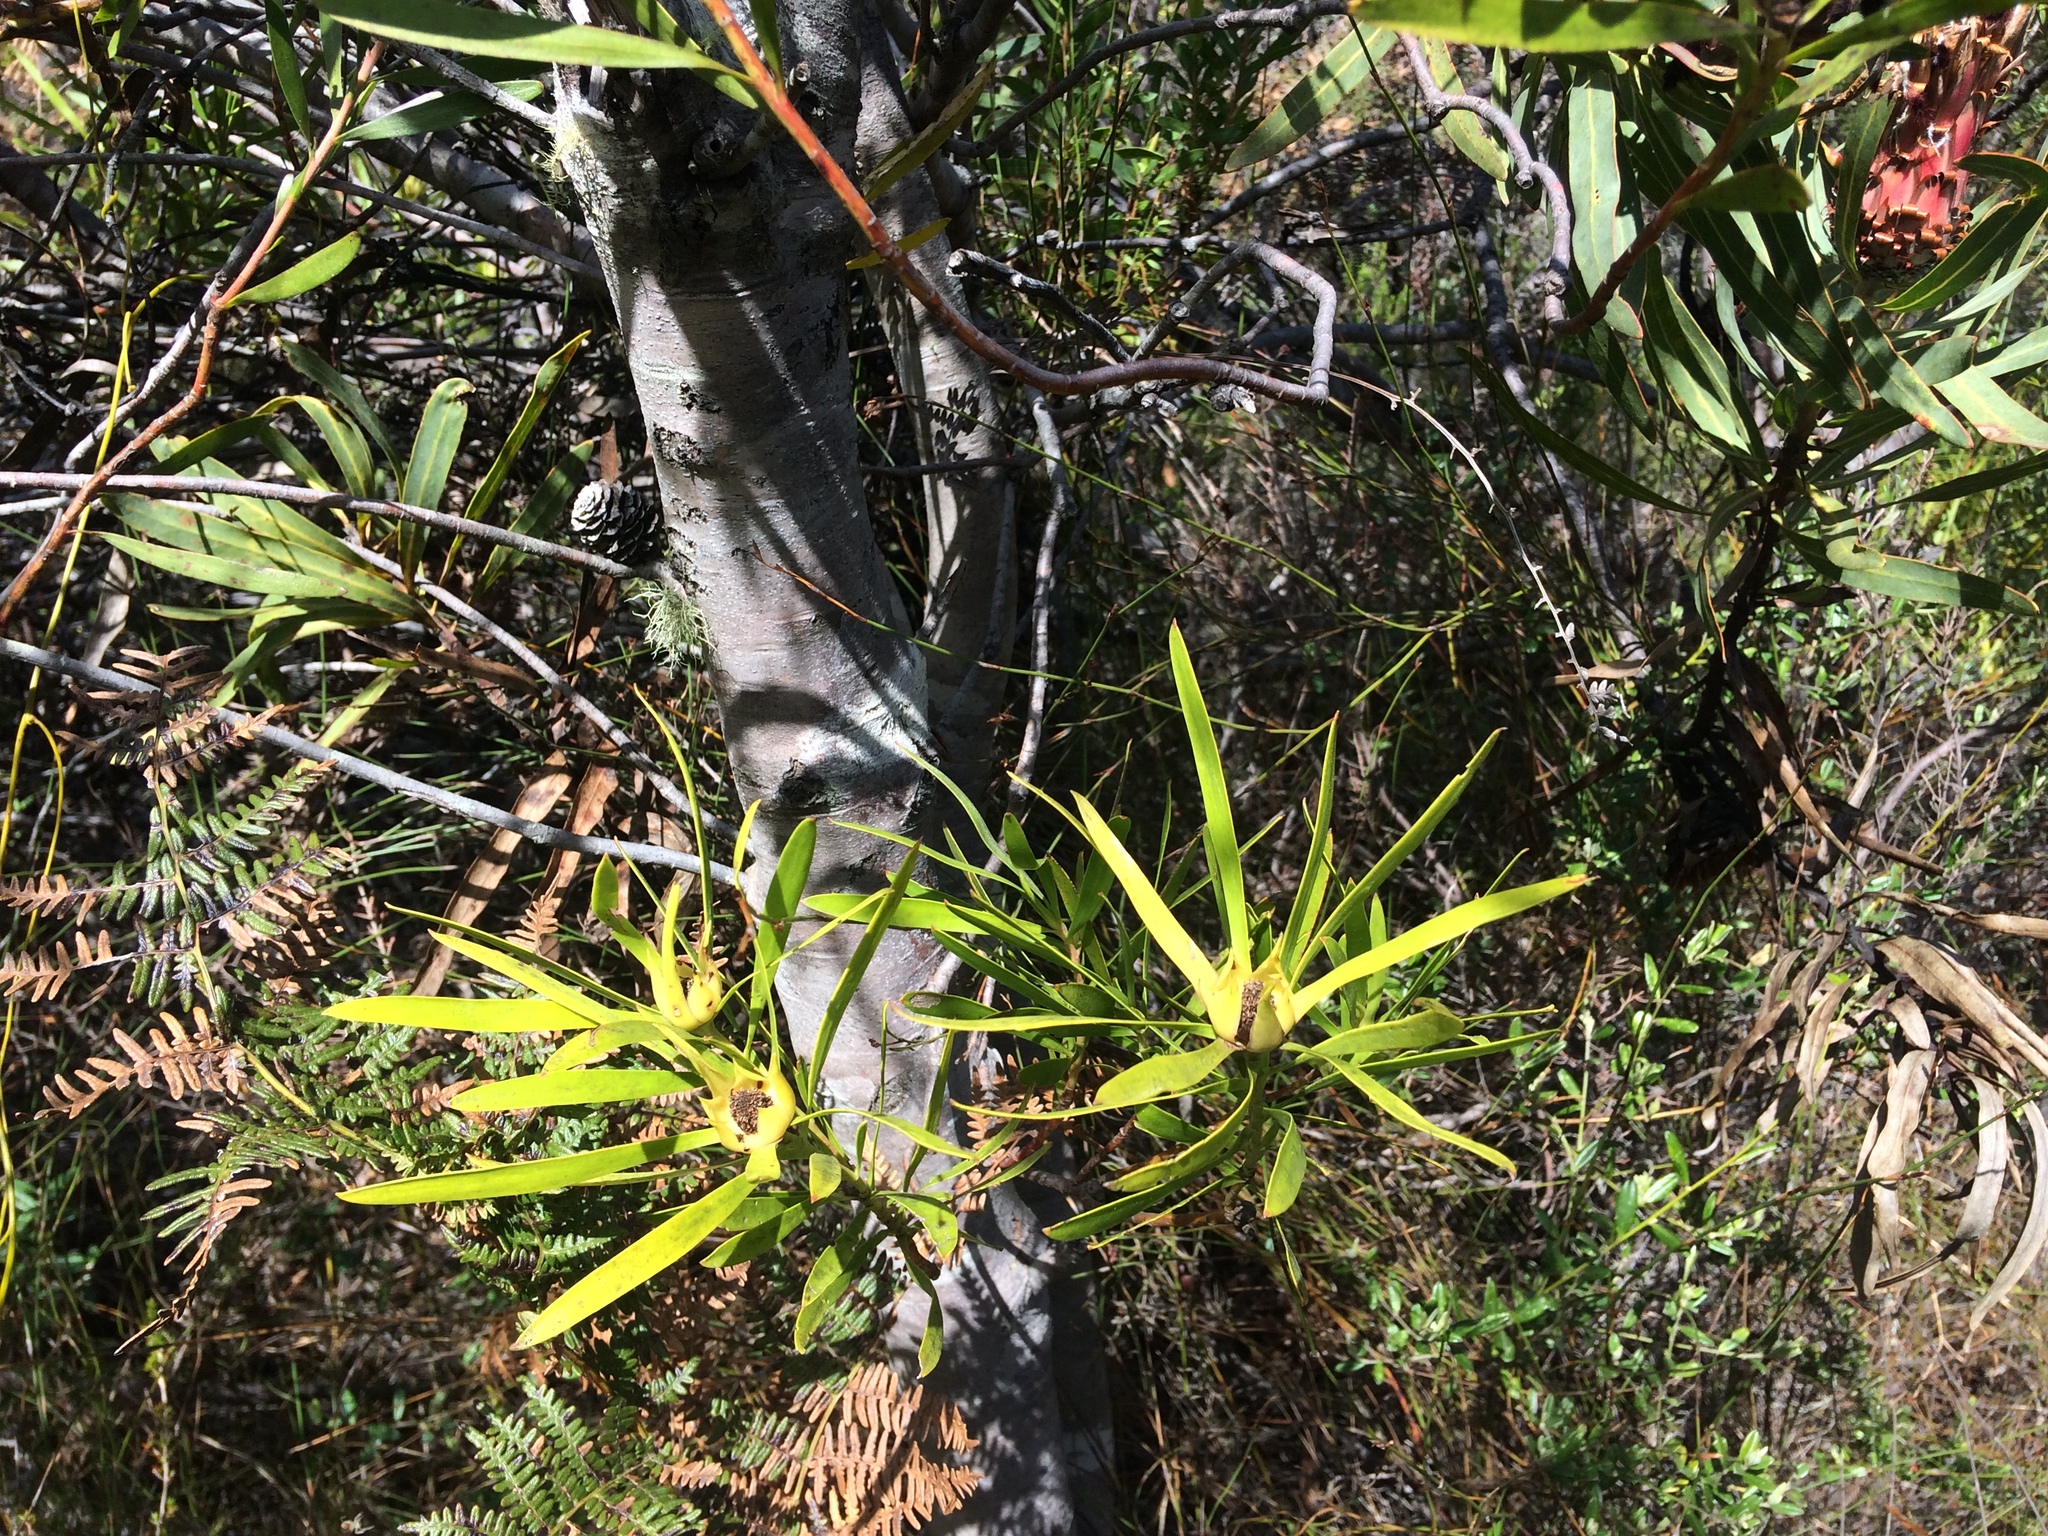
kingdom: Plantae
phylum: Tracheophyta
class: Magnoliopsida
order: Proteales
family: Proteaceae
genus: Leucadendron
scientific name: Leucadendron eucalyptifolium
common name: Gum-leaved conebush
